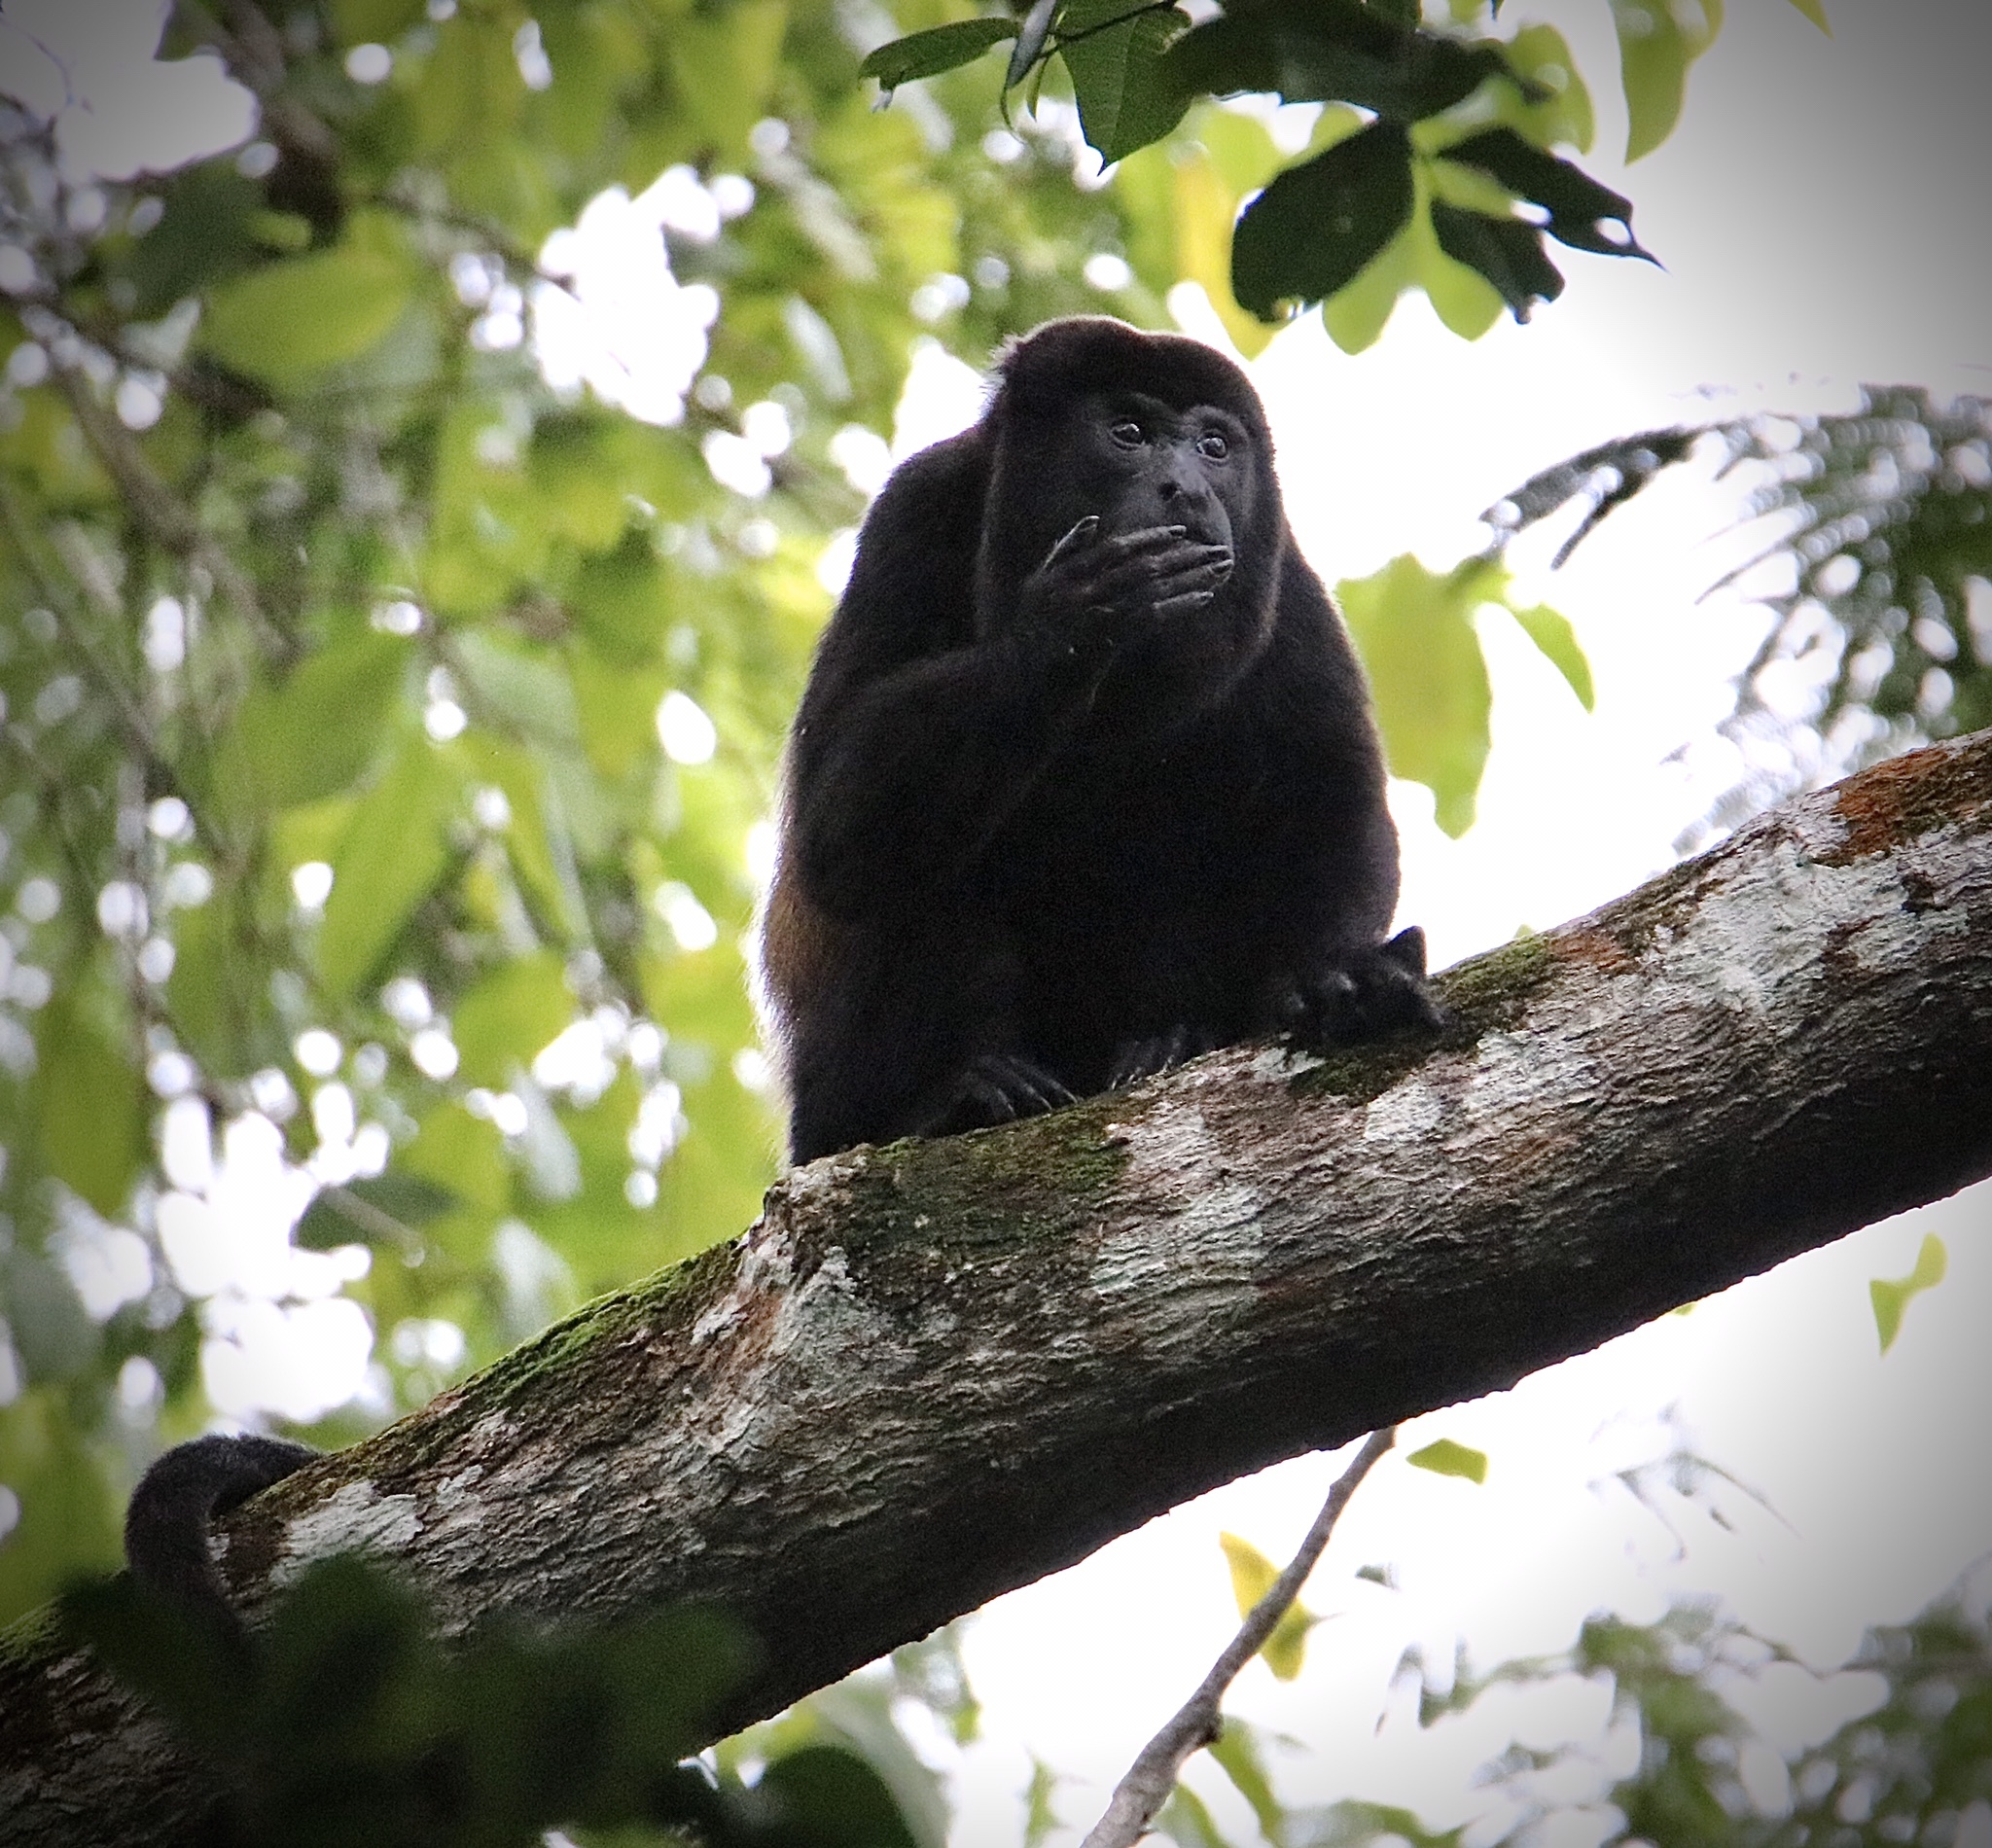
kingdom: Animalia
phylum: Chordata
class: Mammalia
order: Primates
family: Atelidae
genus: Alouatta
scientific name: Alouatta palliata
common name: Mantled howler
